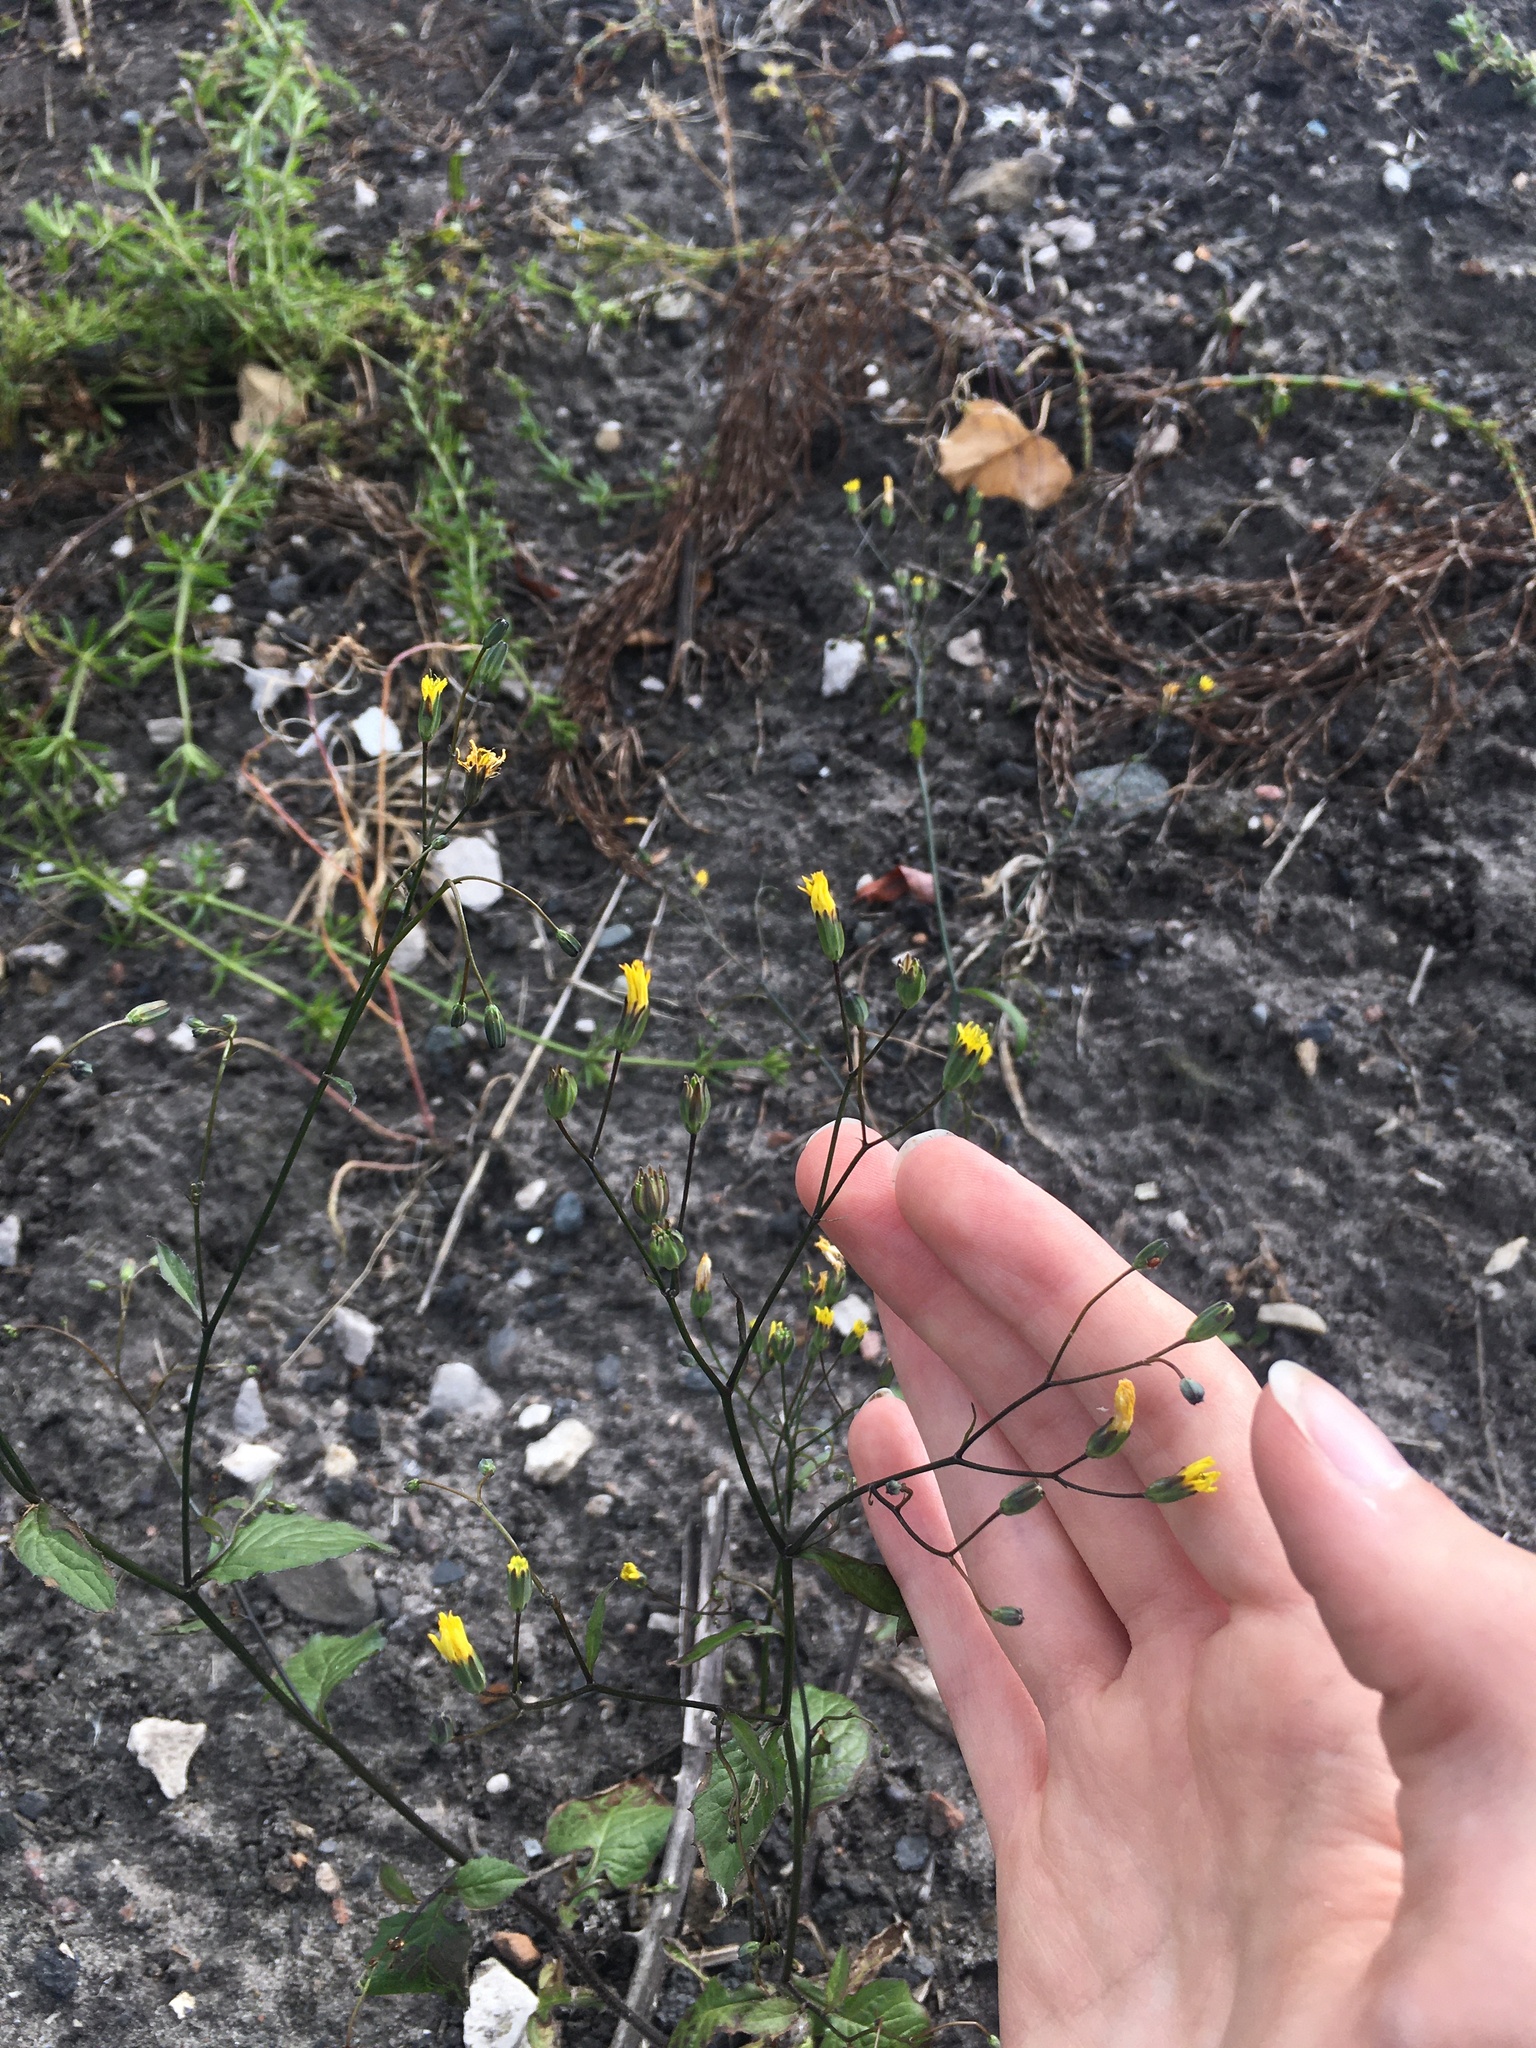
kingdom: Plantae
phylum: Tracheophyta
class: Magnoliopsida
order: Asterales
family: Asteraceae
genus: Lapsana
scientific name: Lapsana communis
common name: Nipplewort
